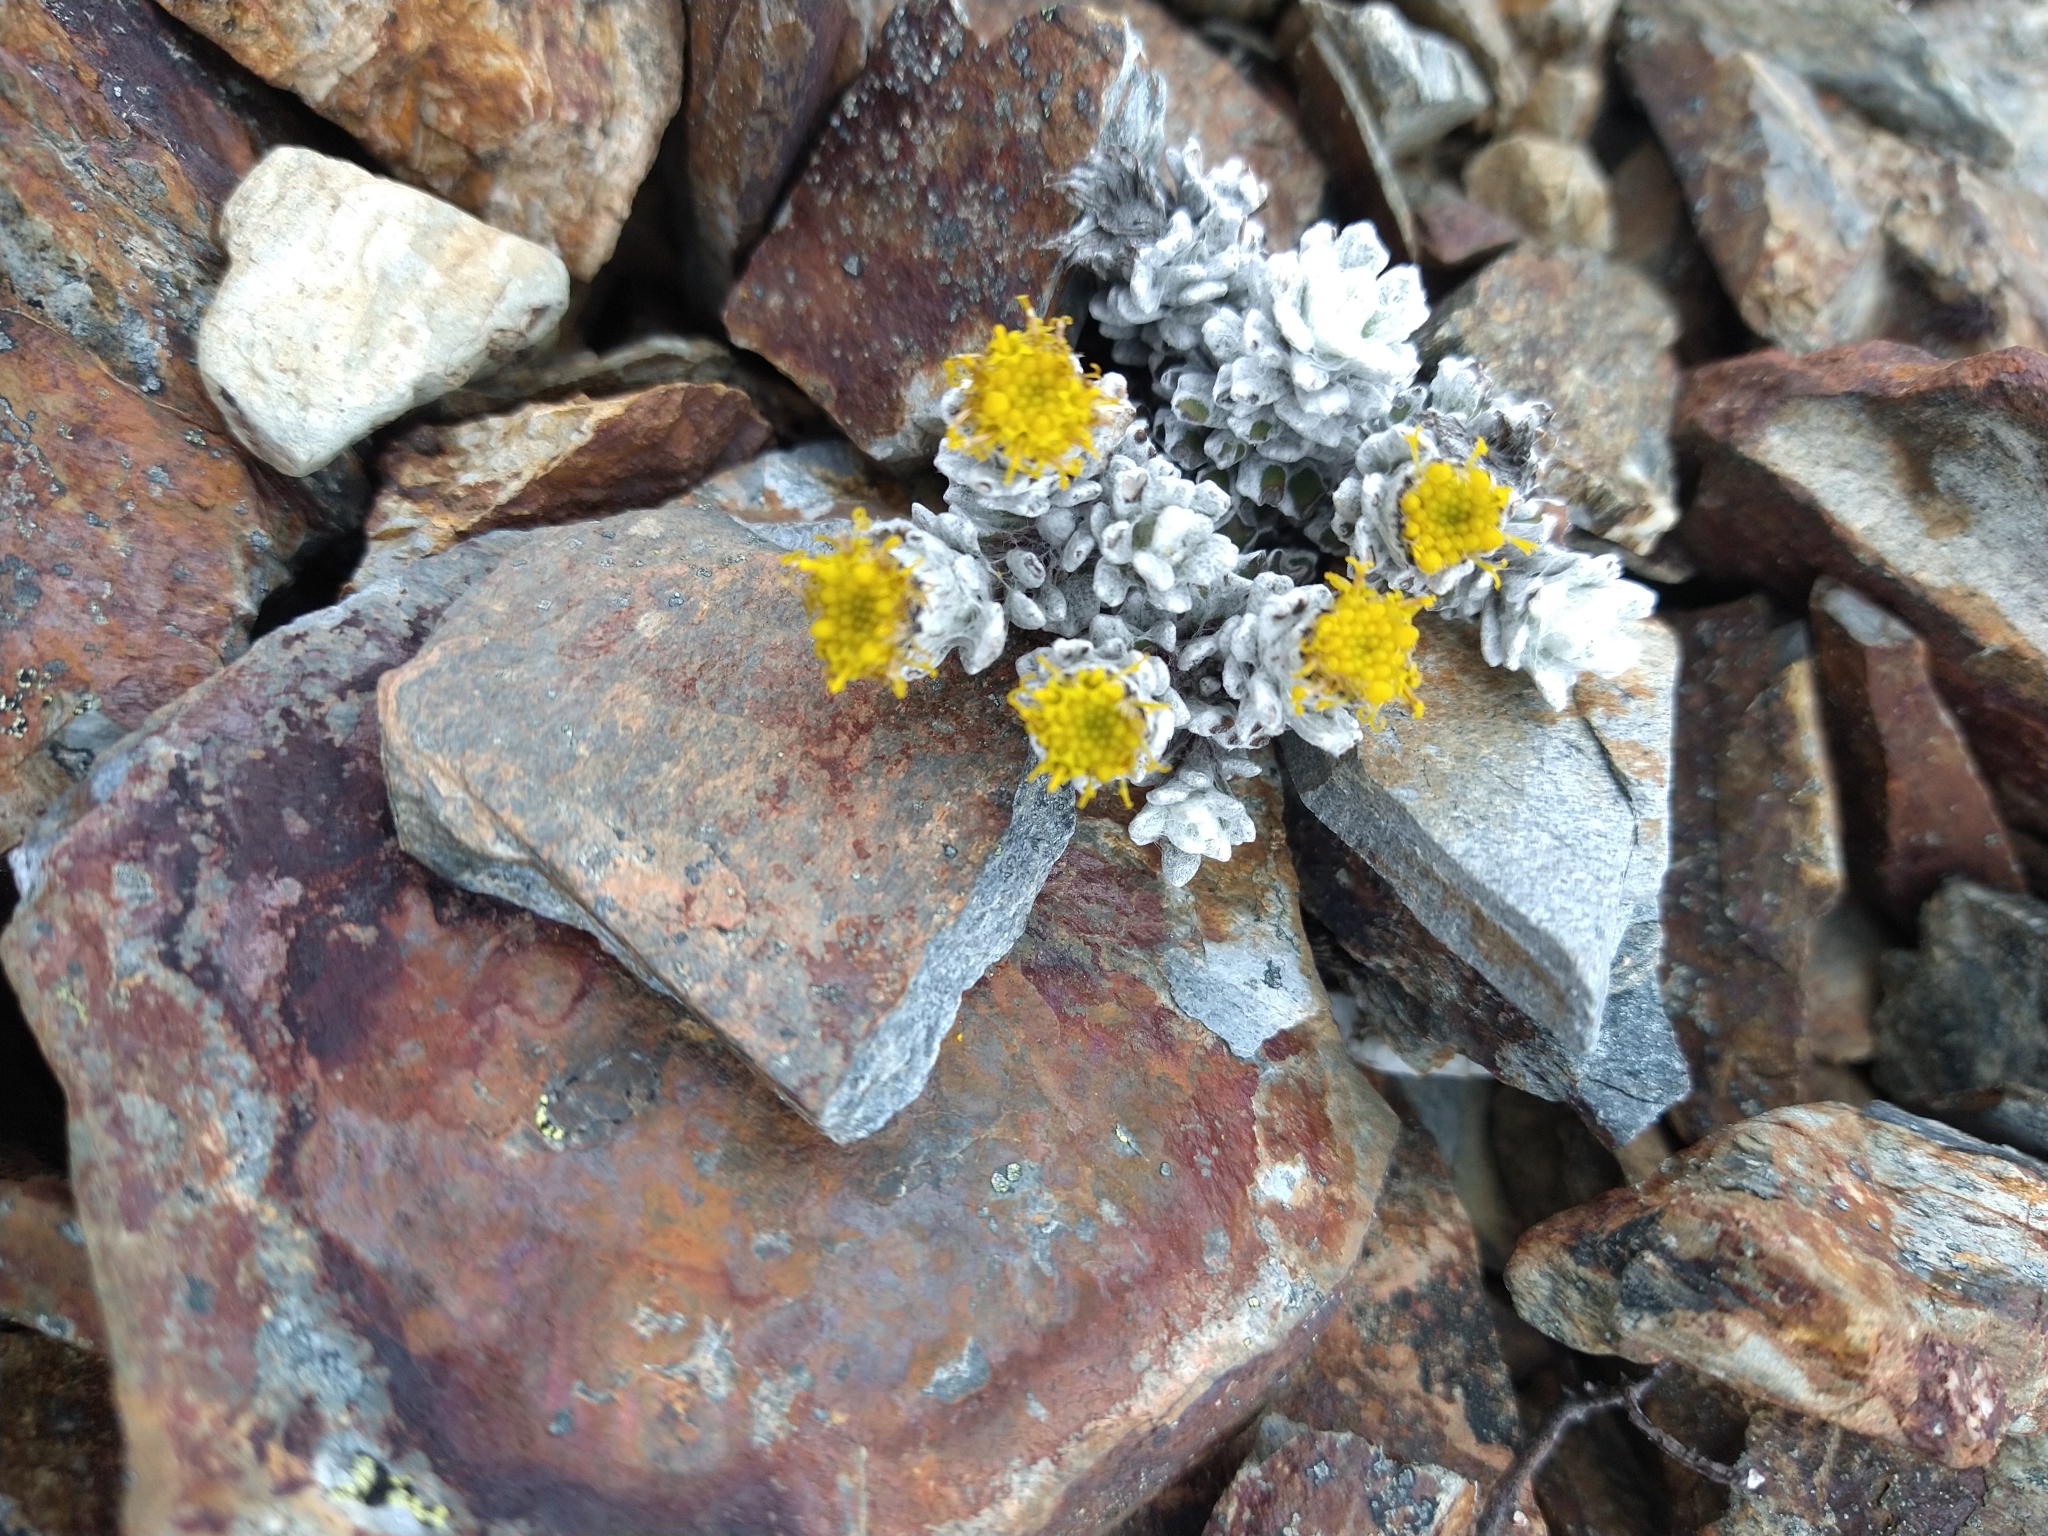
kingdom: Plantae
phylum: Tracheophyta
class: Magnoliopsida
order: Asterales
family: Asteraceae
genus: Senecio
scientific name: Senecio alloeophyllus
